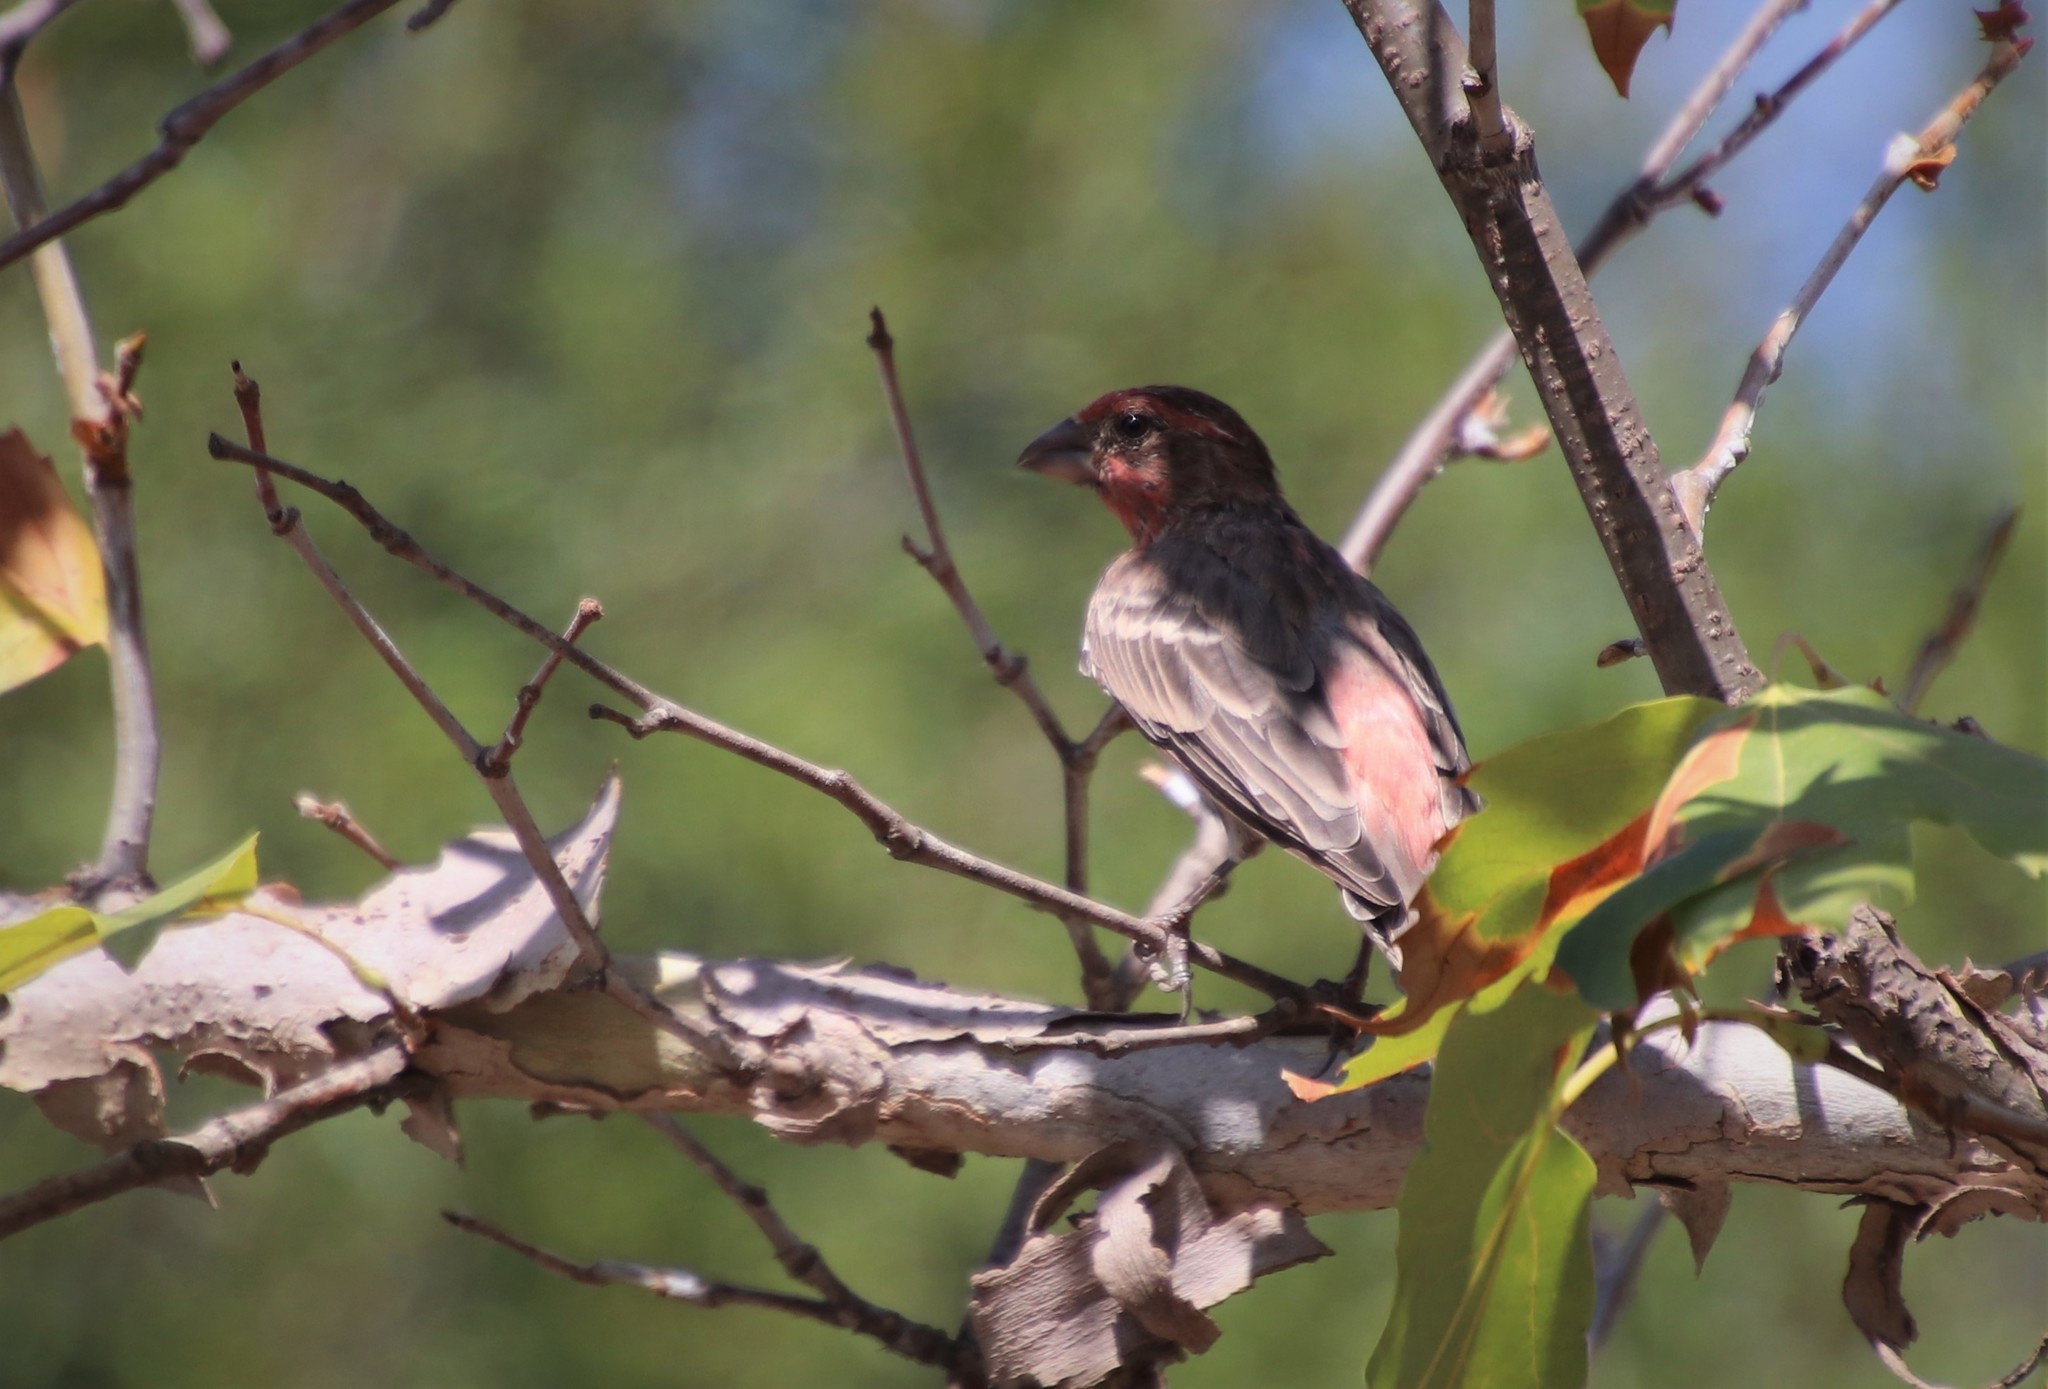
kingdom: Animalia
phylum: Chordata
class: Aves
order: Passeriformes
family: Fringillidae
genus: Haemorhous
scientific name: Haemorhous mexicanus
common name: House finch
